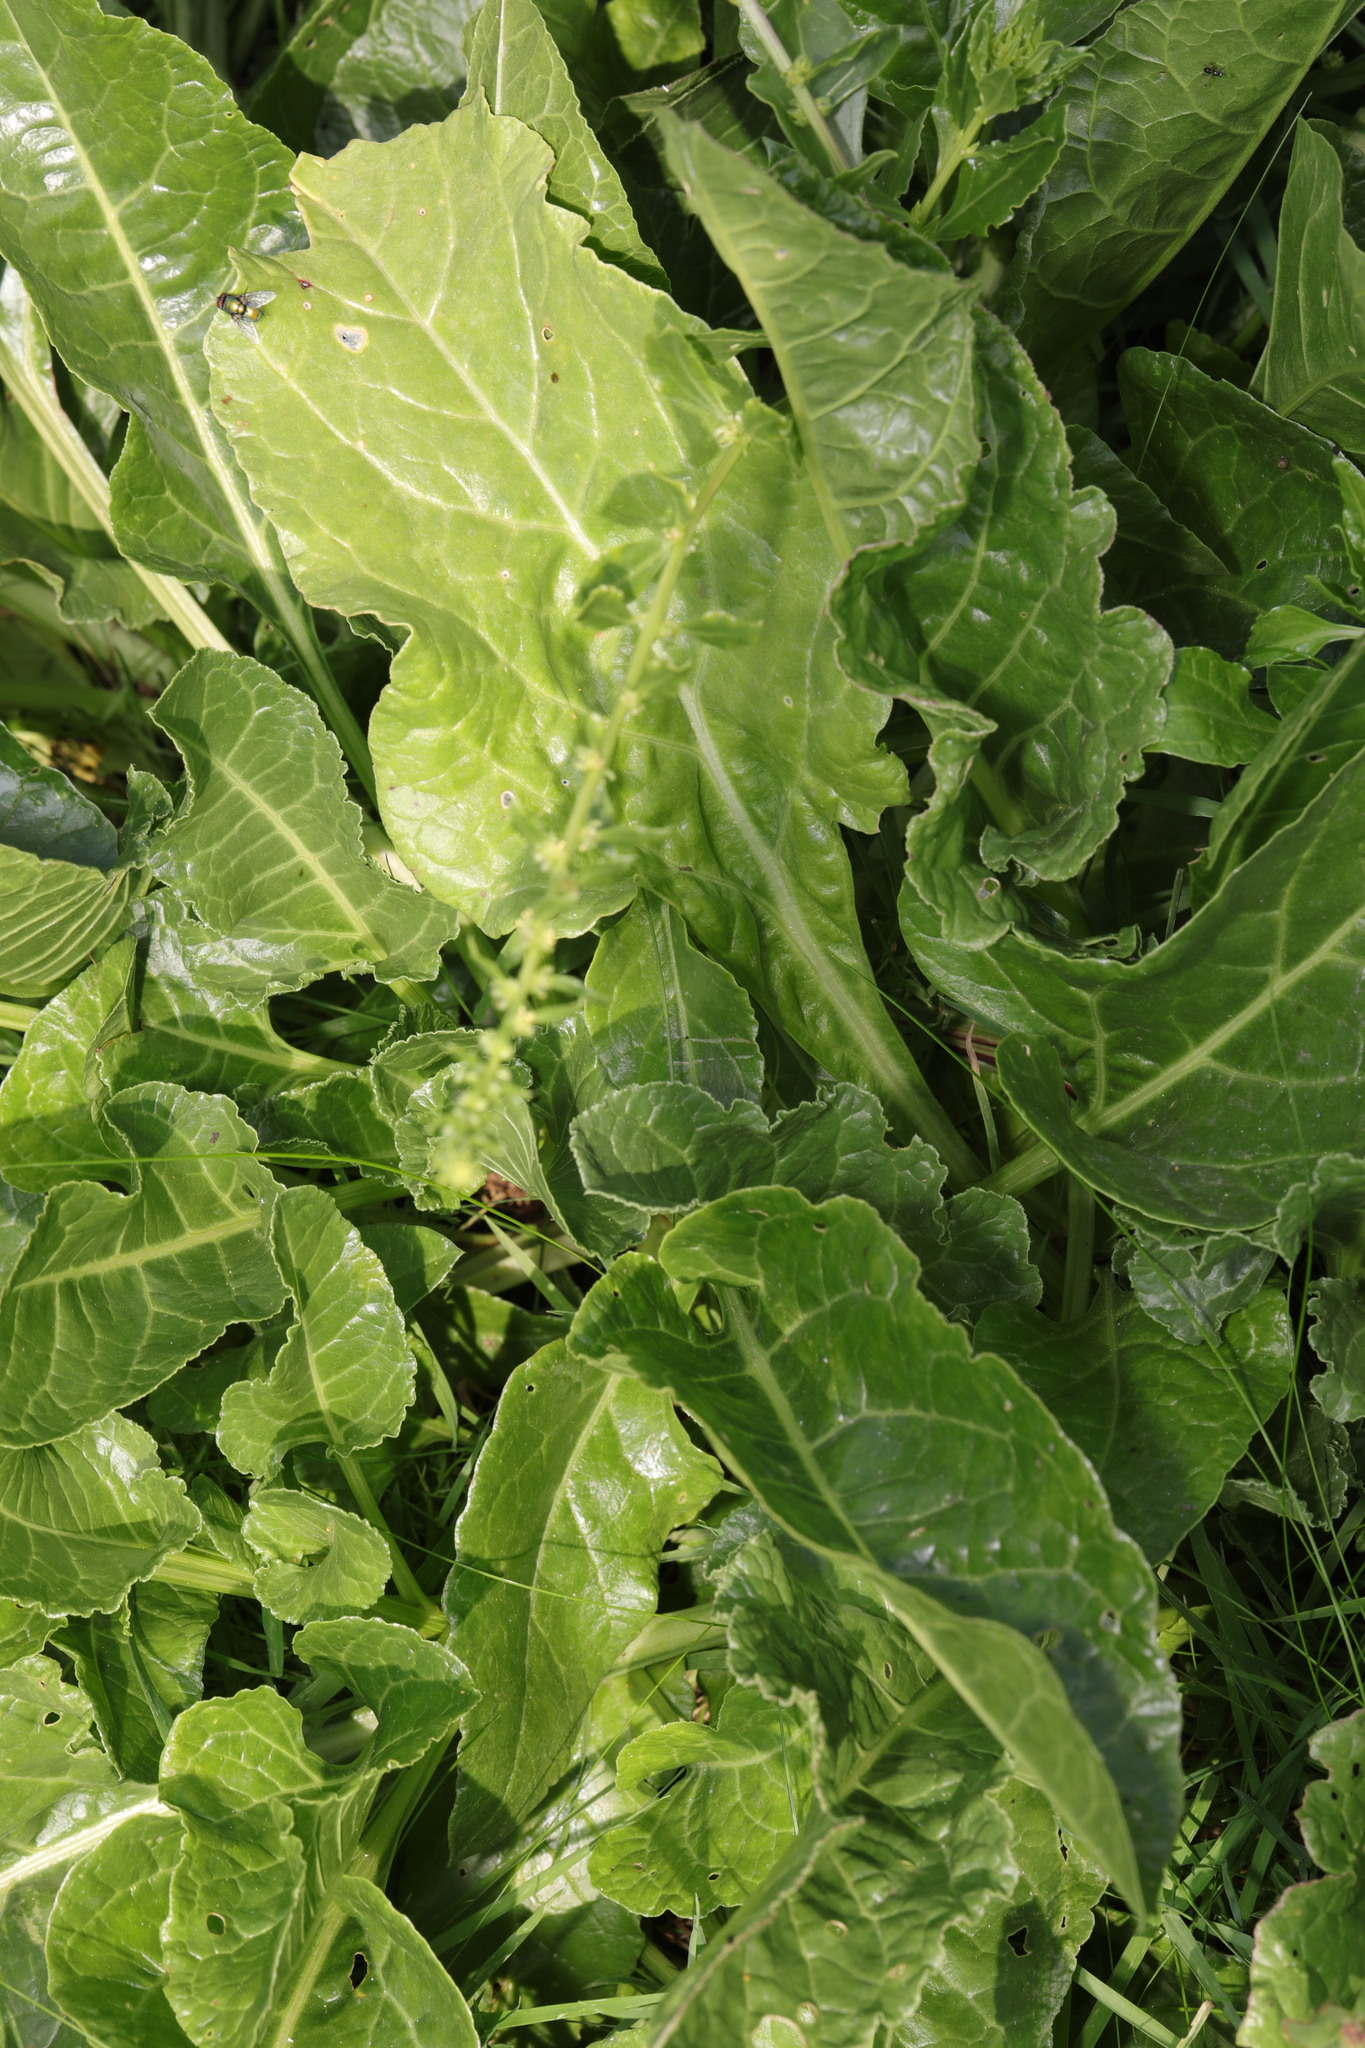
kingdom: Plantae
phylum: Tracheophyta
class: Magnoliopsida
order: Caryophyllales
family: Amaranthaceae
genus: Beta
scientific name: Beta vulgaris
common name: Beet
